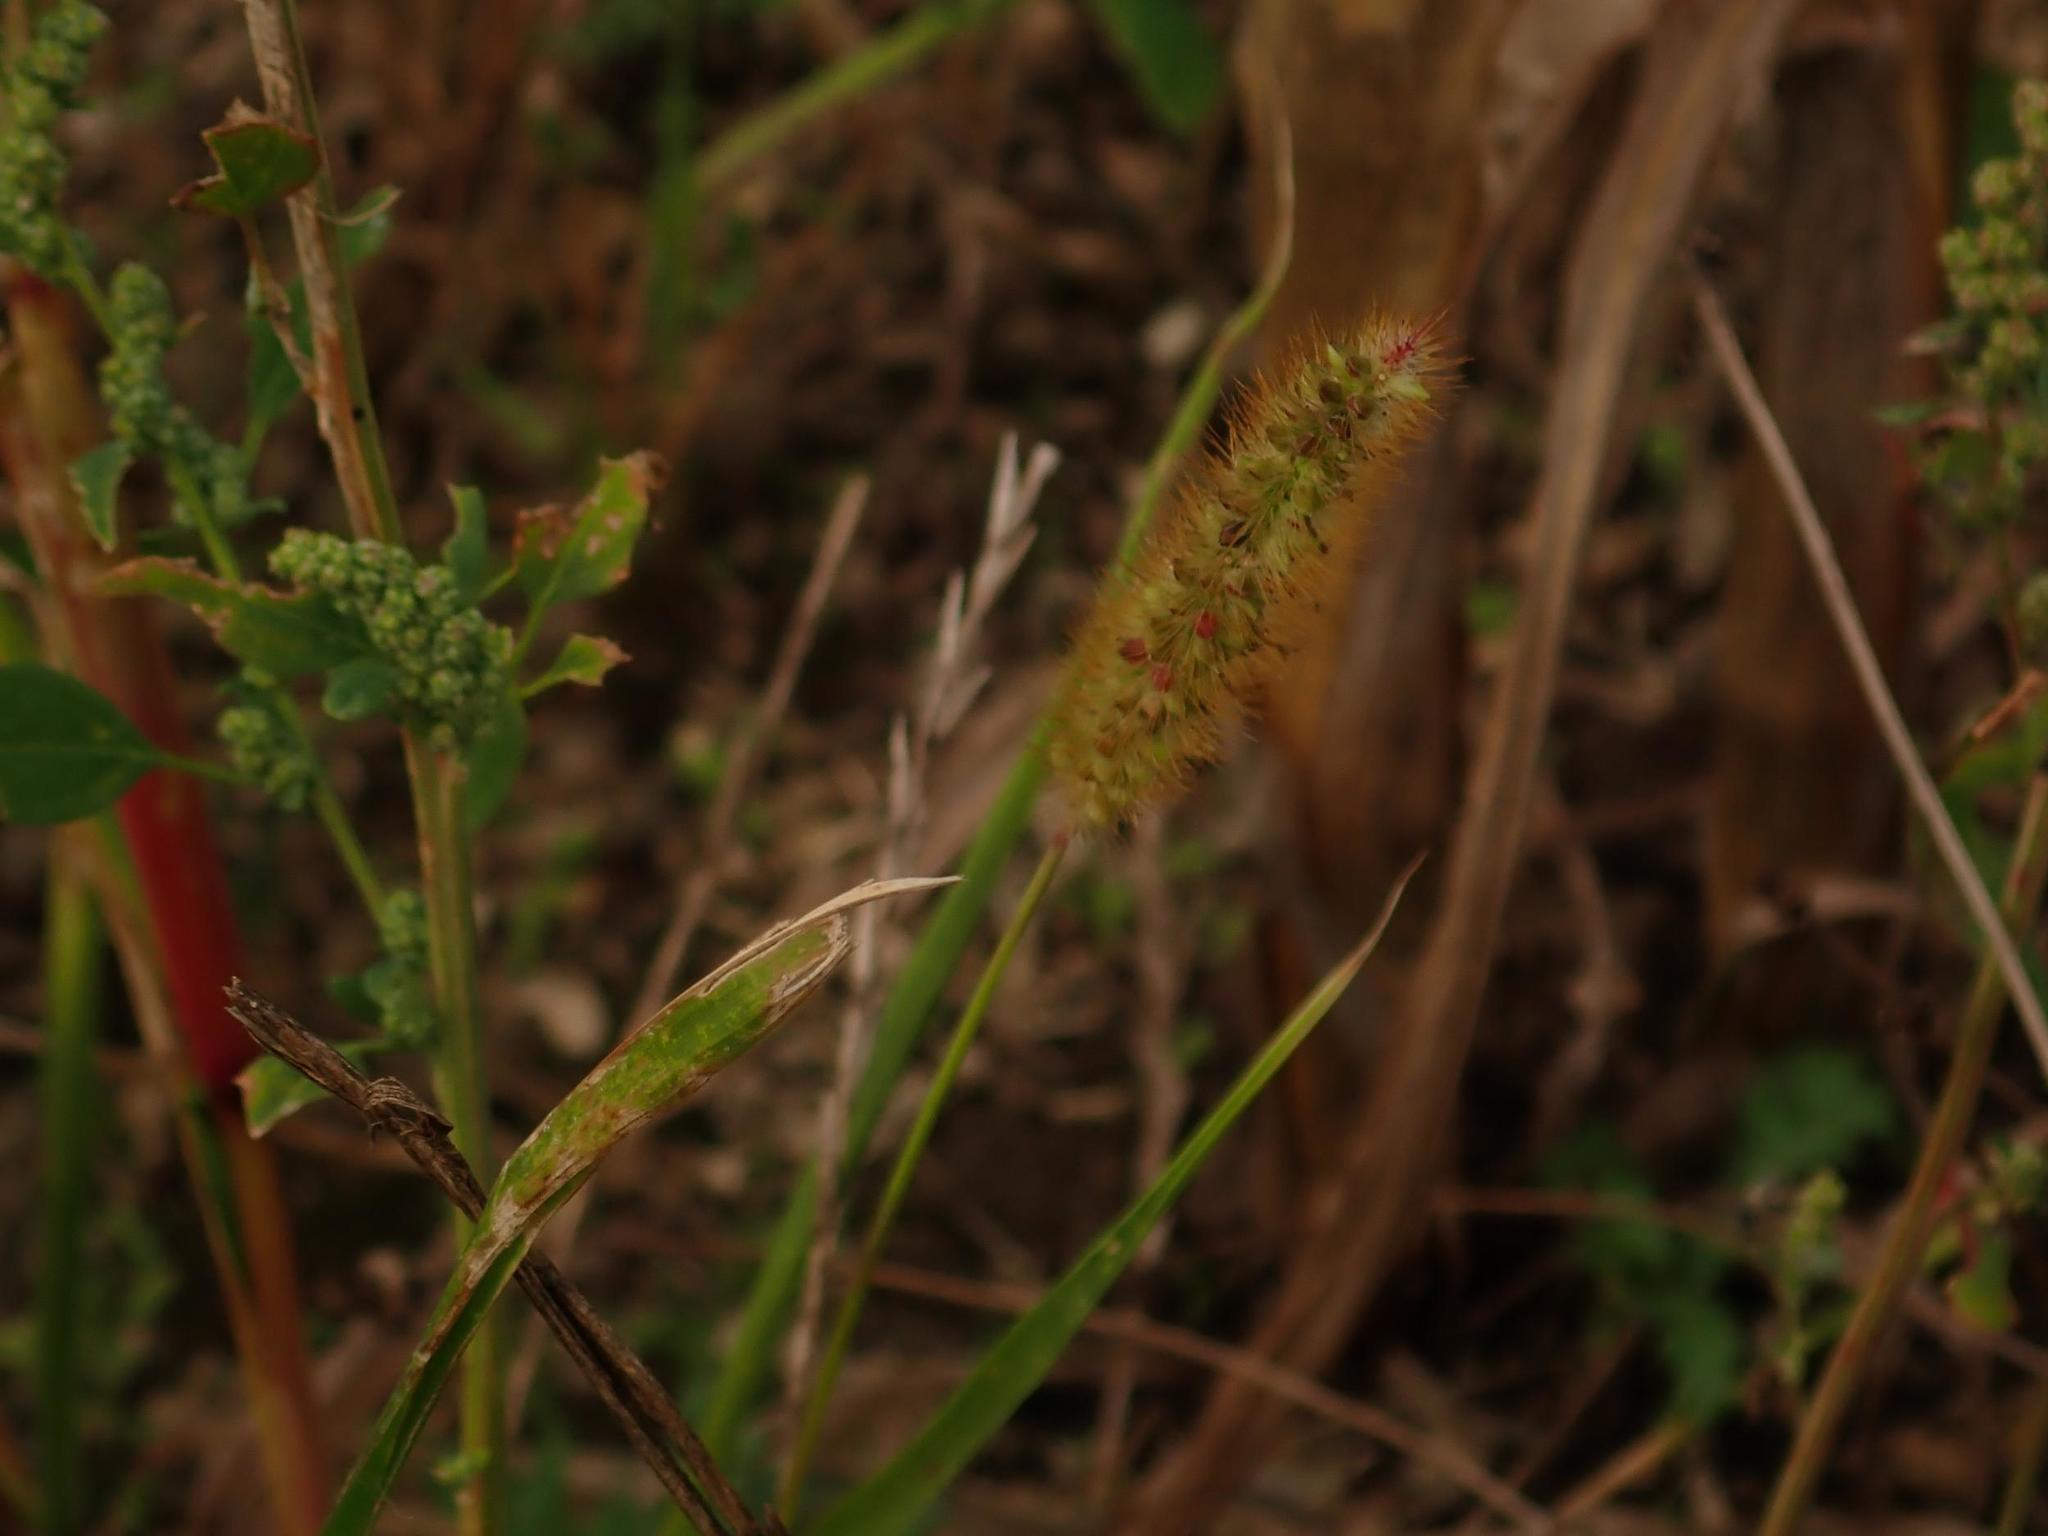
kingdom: Plantae
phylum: Tracheophyta
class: Liliopsida
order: Poales
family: Poaceae
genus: Setaria
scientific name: Setaria pumila
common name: Yellow bristle-grass
